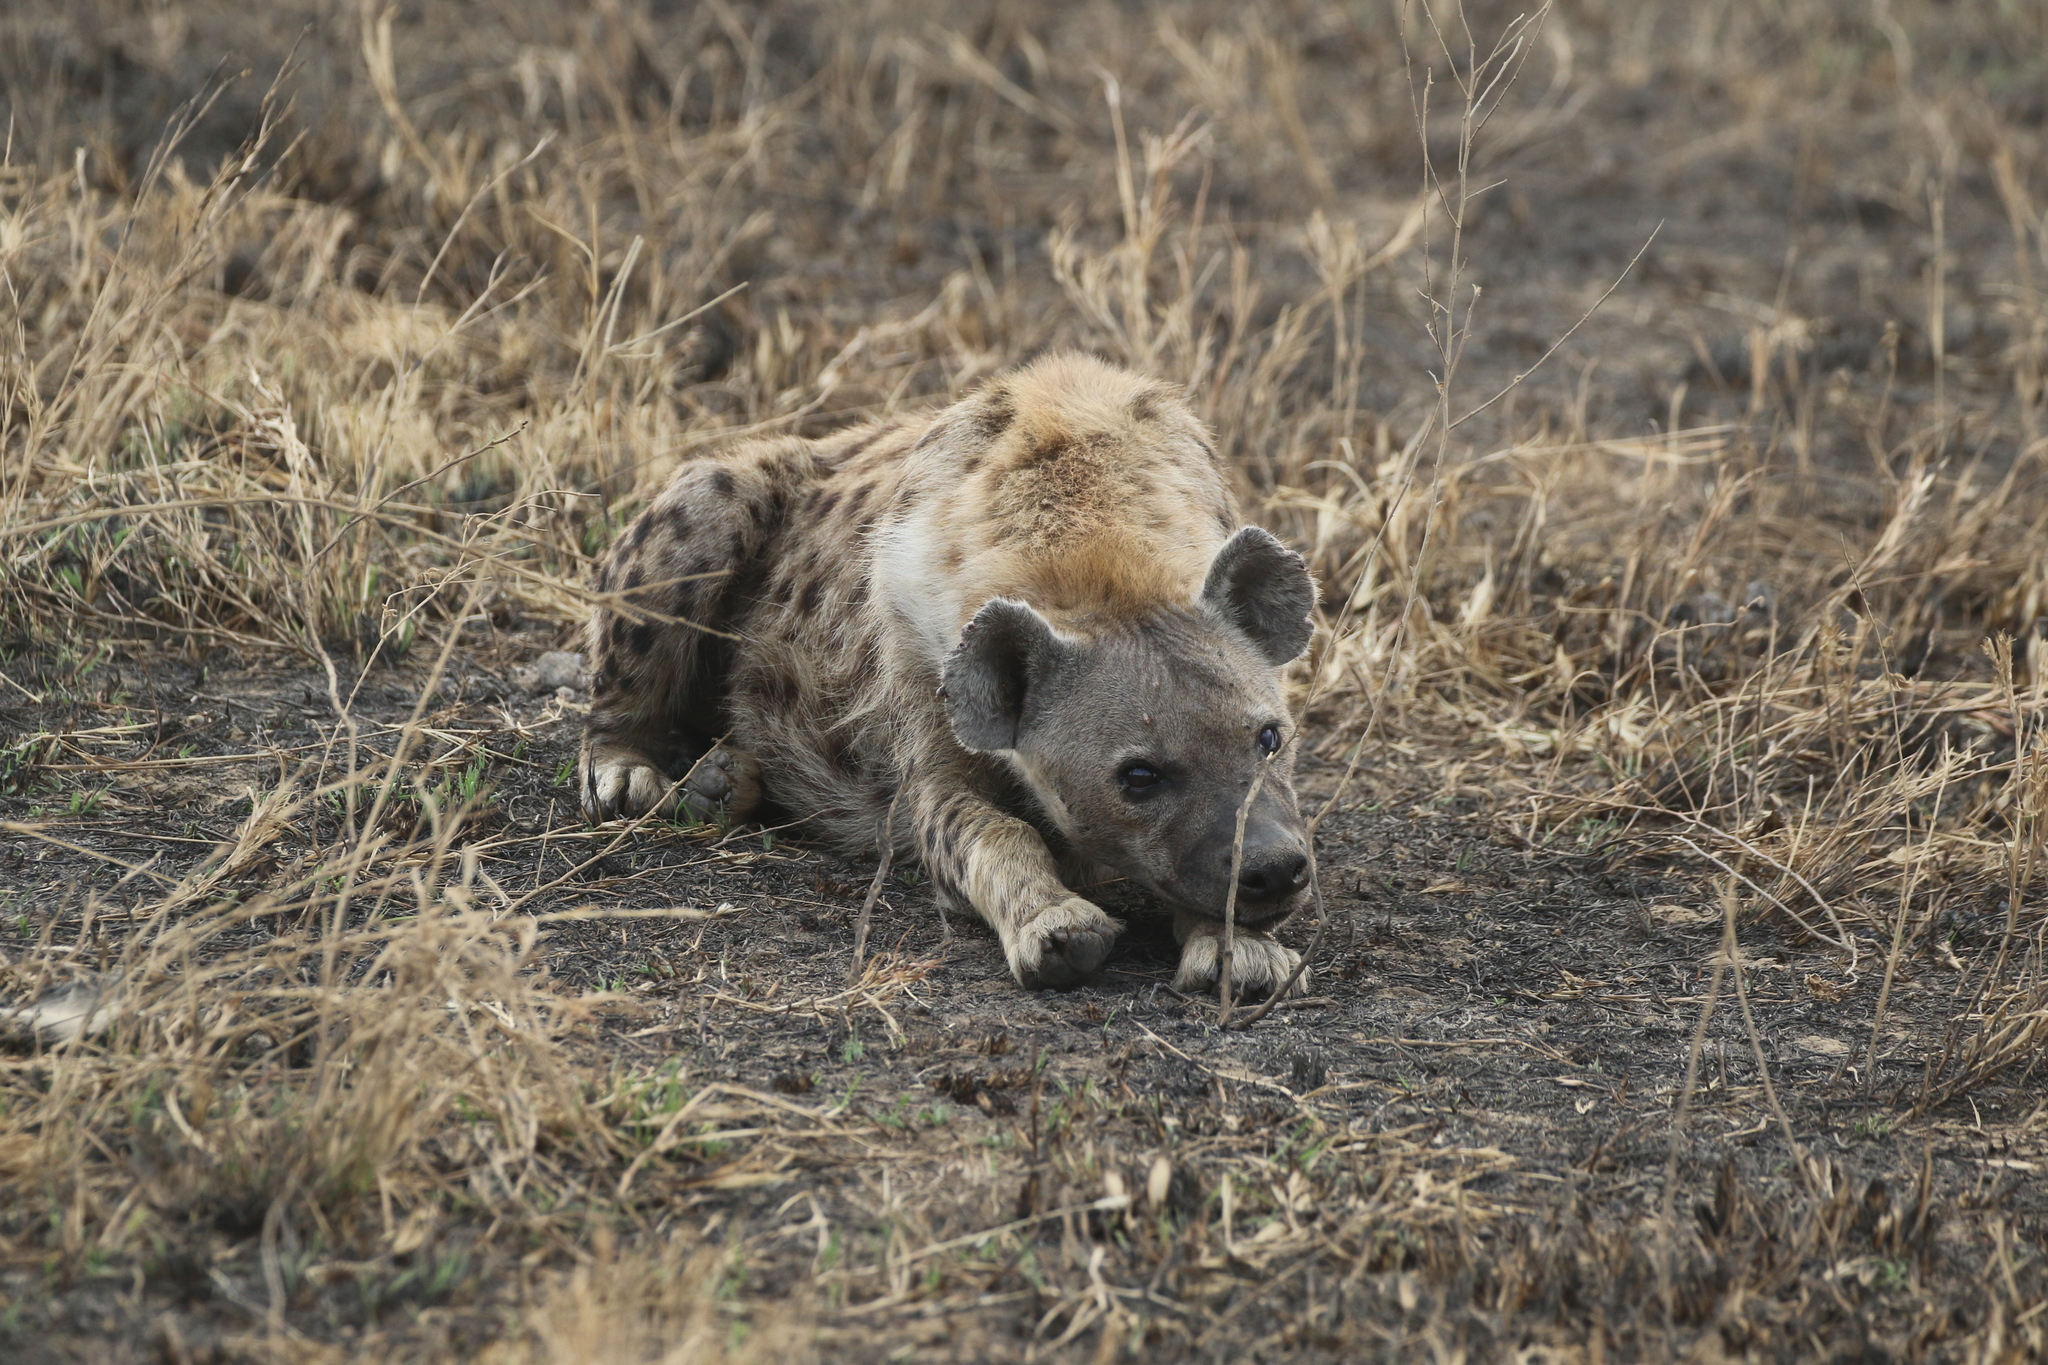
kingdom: Animalia
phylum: Chordata
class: Mammalia
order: Carnivora
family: Hyaenidae
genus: Crocuta
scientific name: Crocuta crocuta
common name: Spotted hyaena
